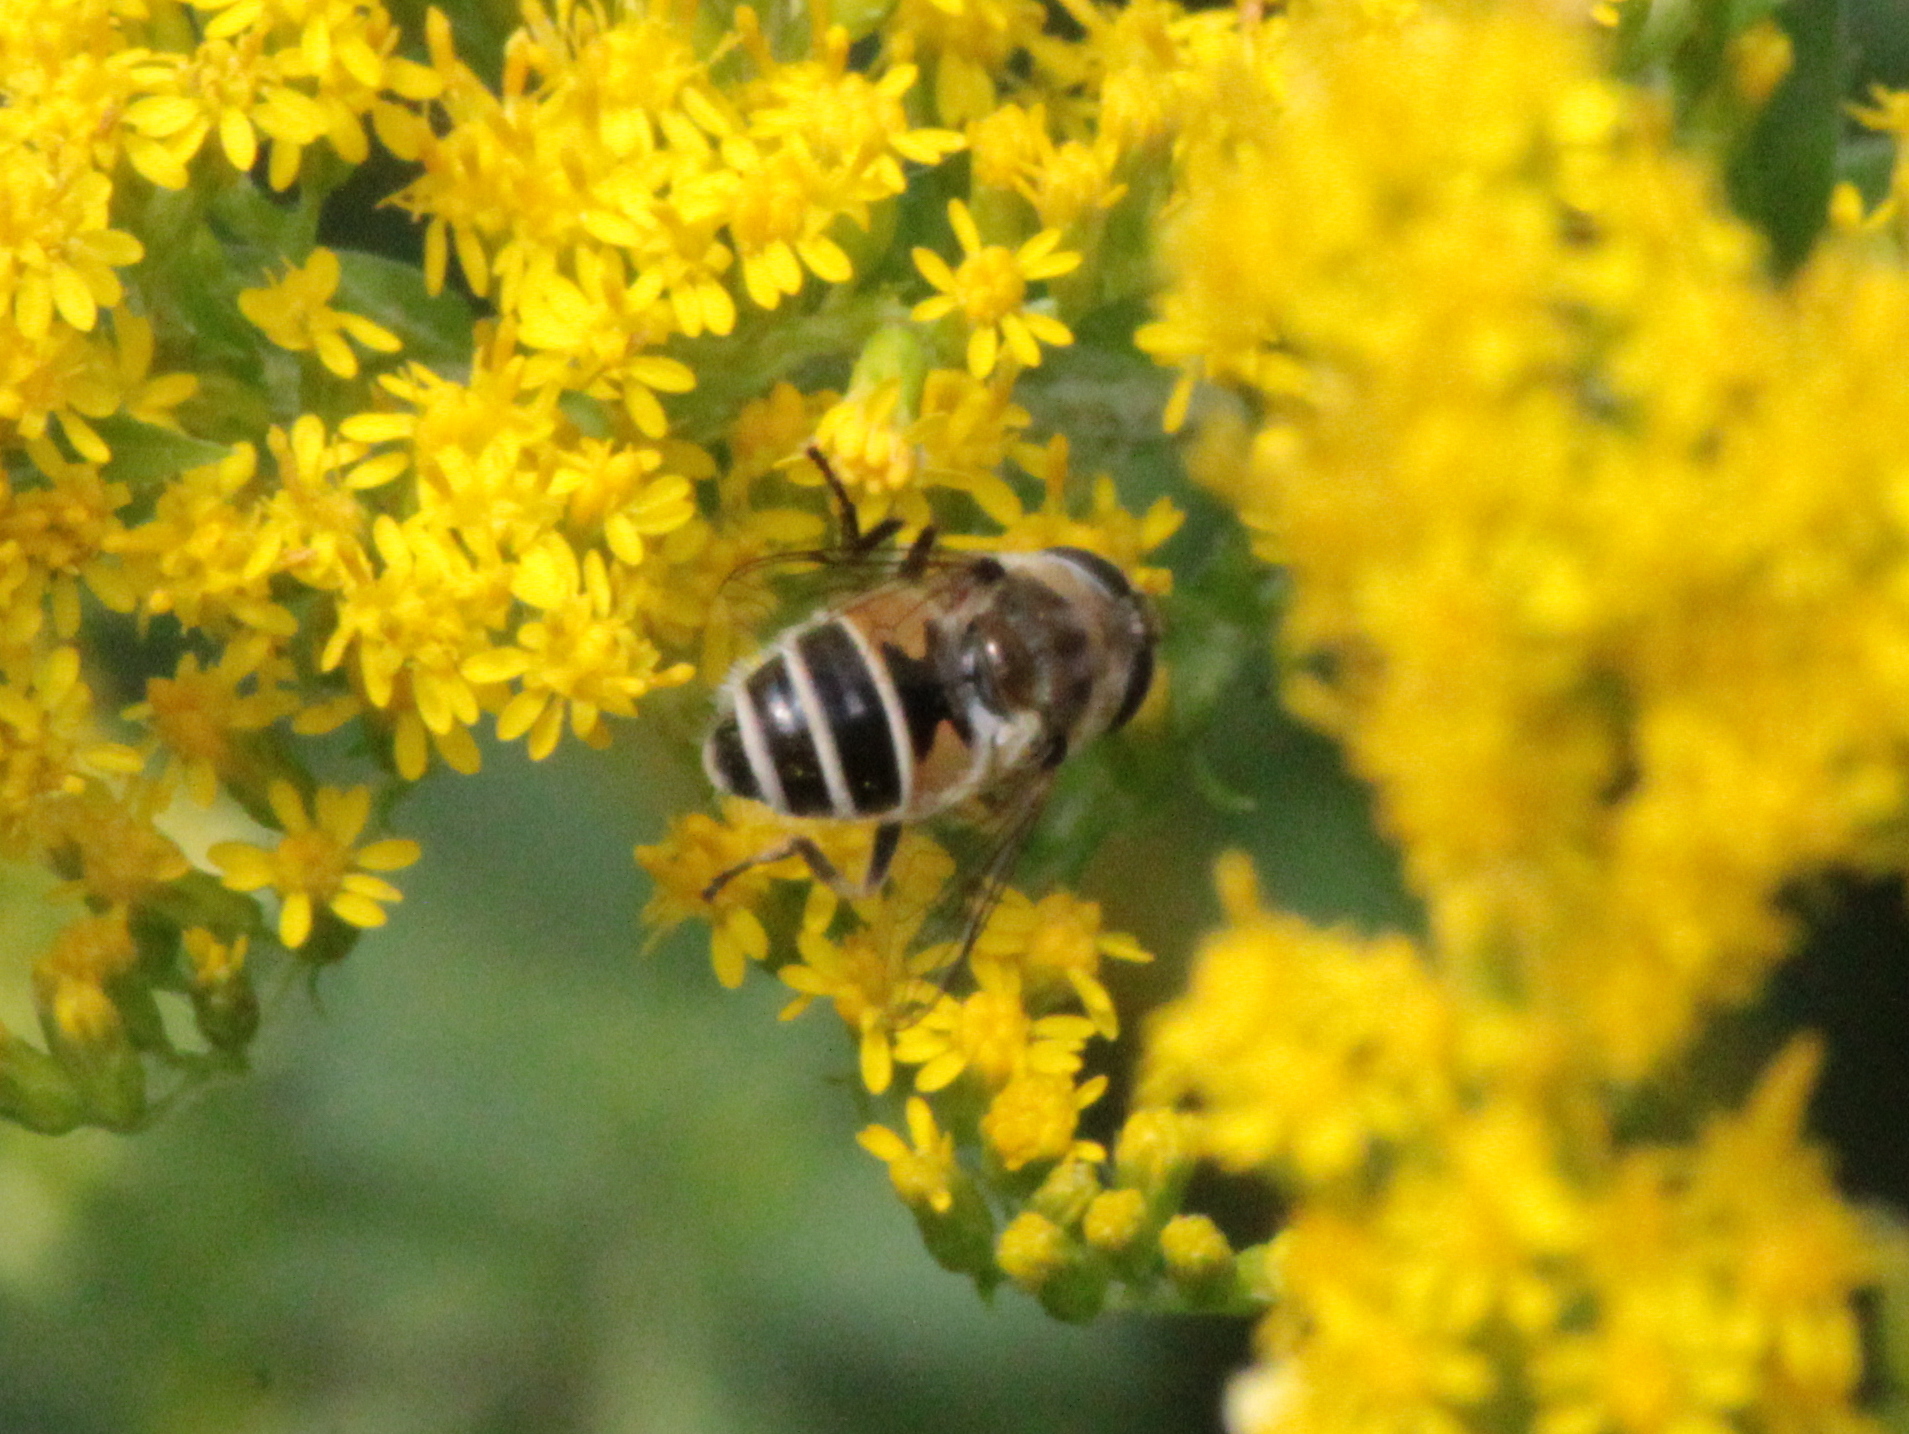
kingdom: Animalia
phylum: Arthropoda
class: Insecta
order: Diptera
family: Syrphidae
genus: Eristalis
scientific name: Eristalis arbustorum
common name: Hover fly
